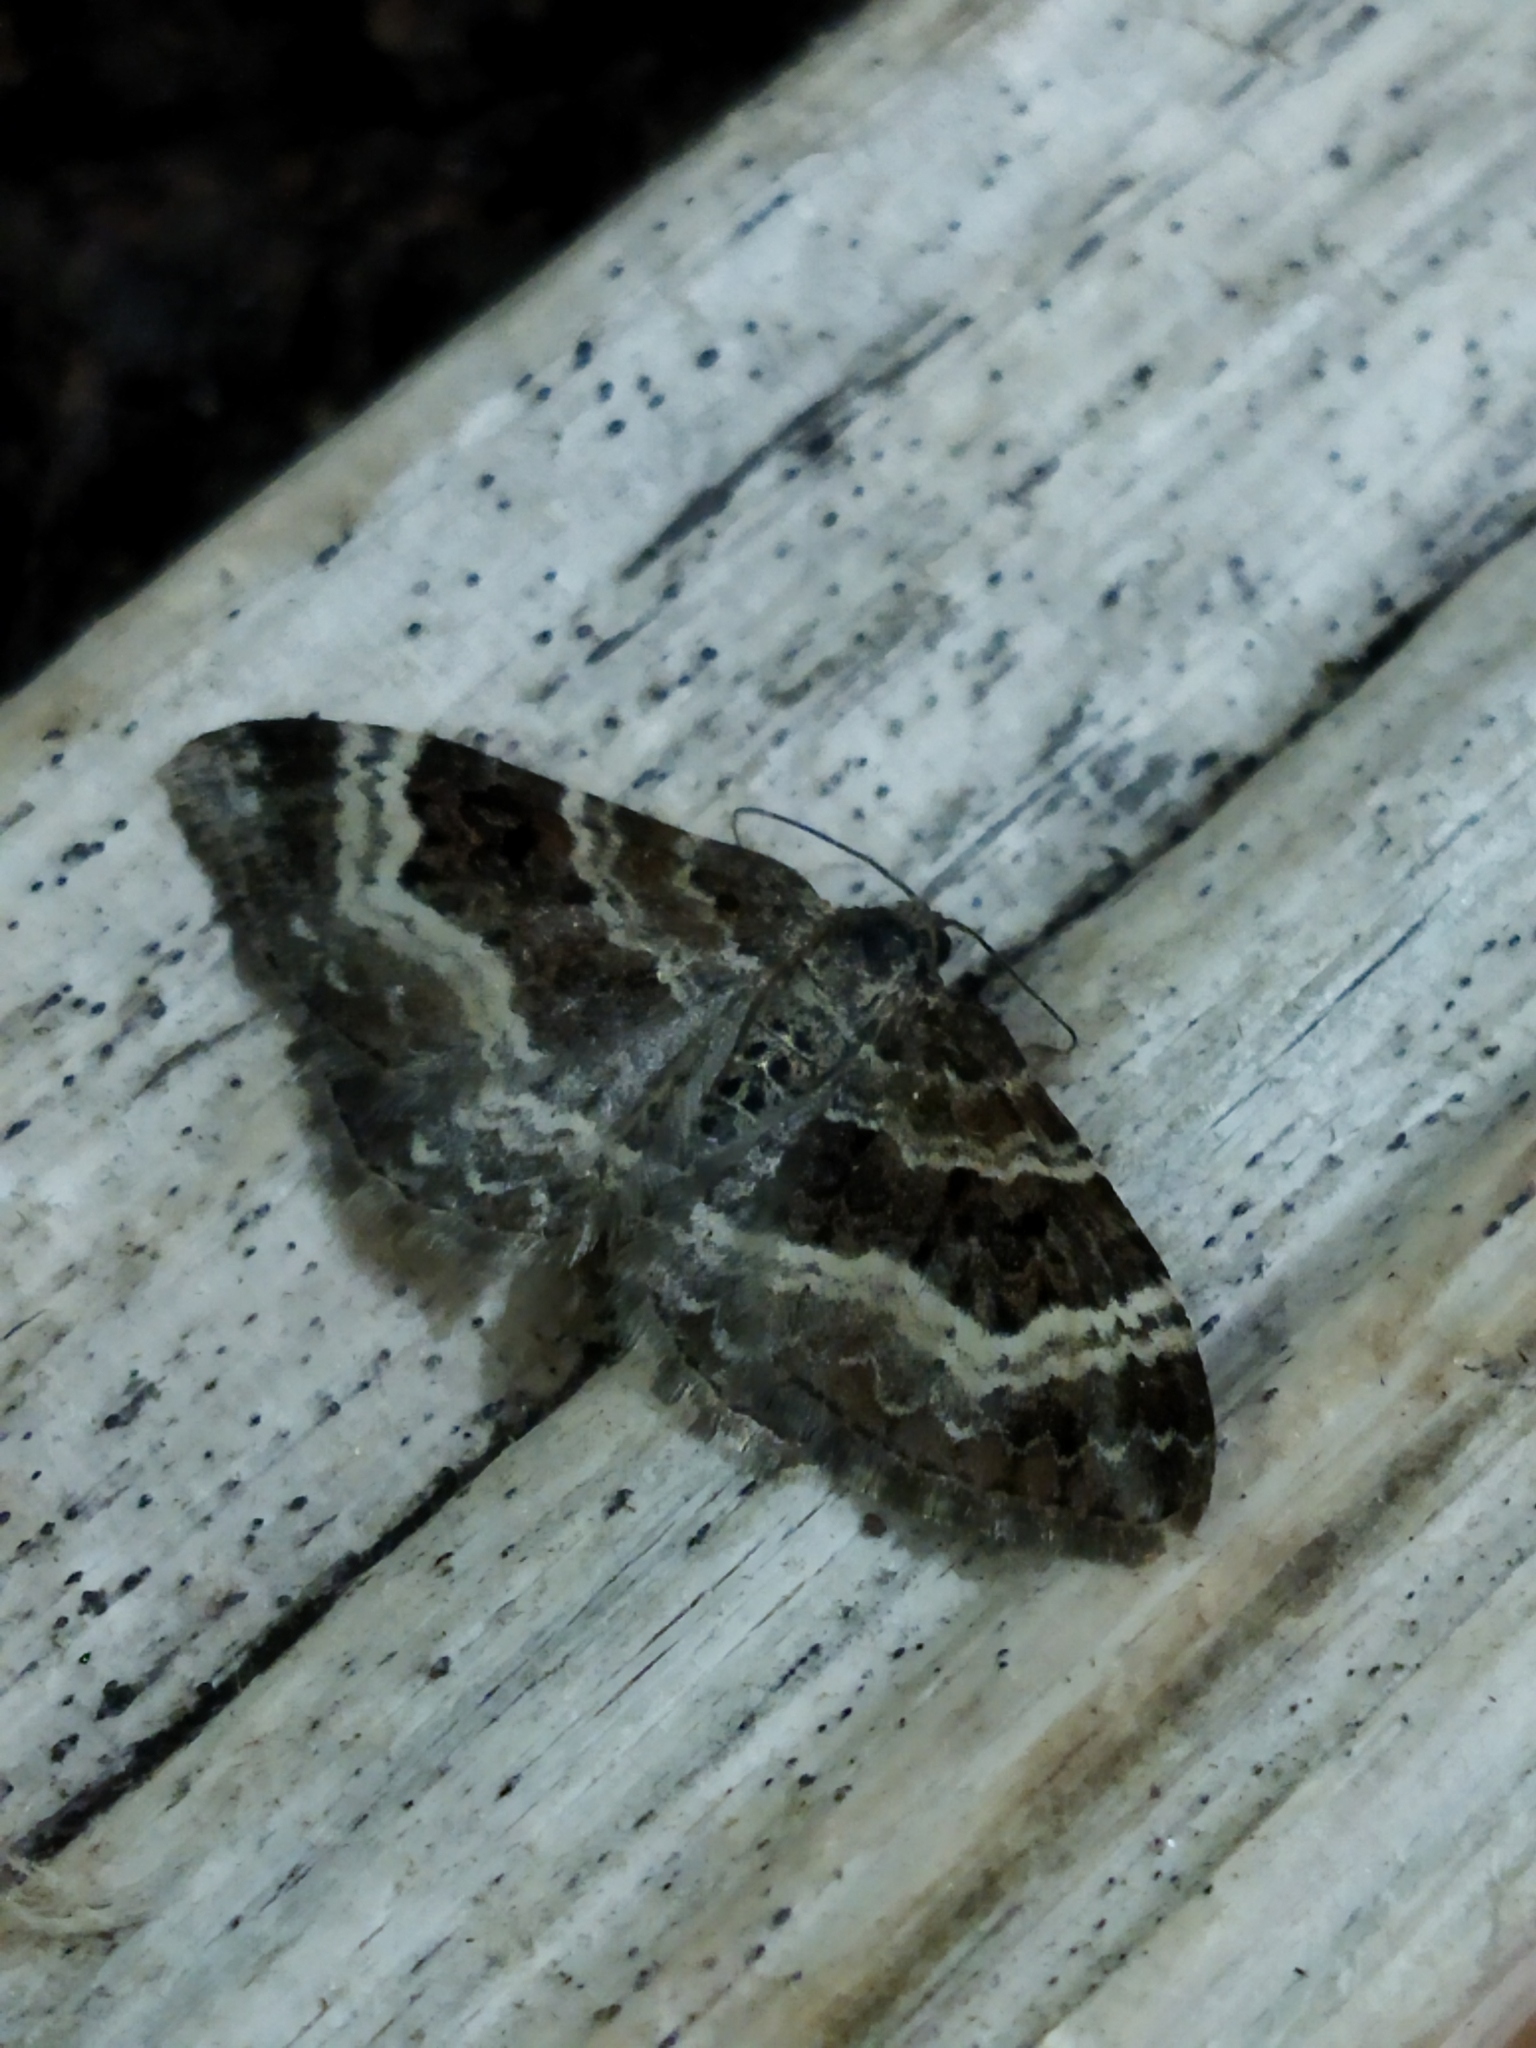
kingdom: Animalia
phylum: Arthropoda
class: Insecta
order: Lepidoptera
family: Geometridae
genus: Epirrhoe
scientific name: Epirrhoe alternata
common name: Common carpet
